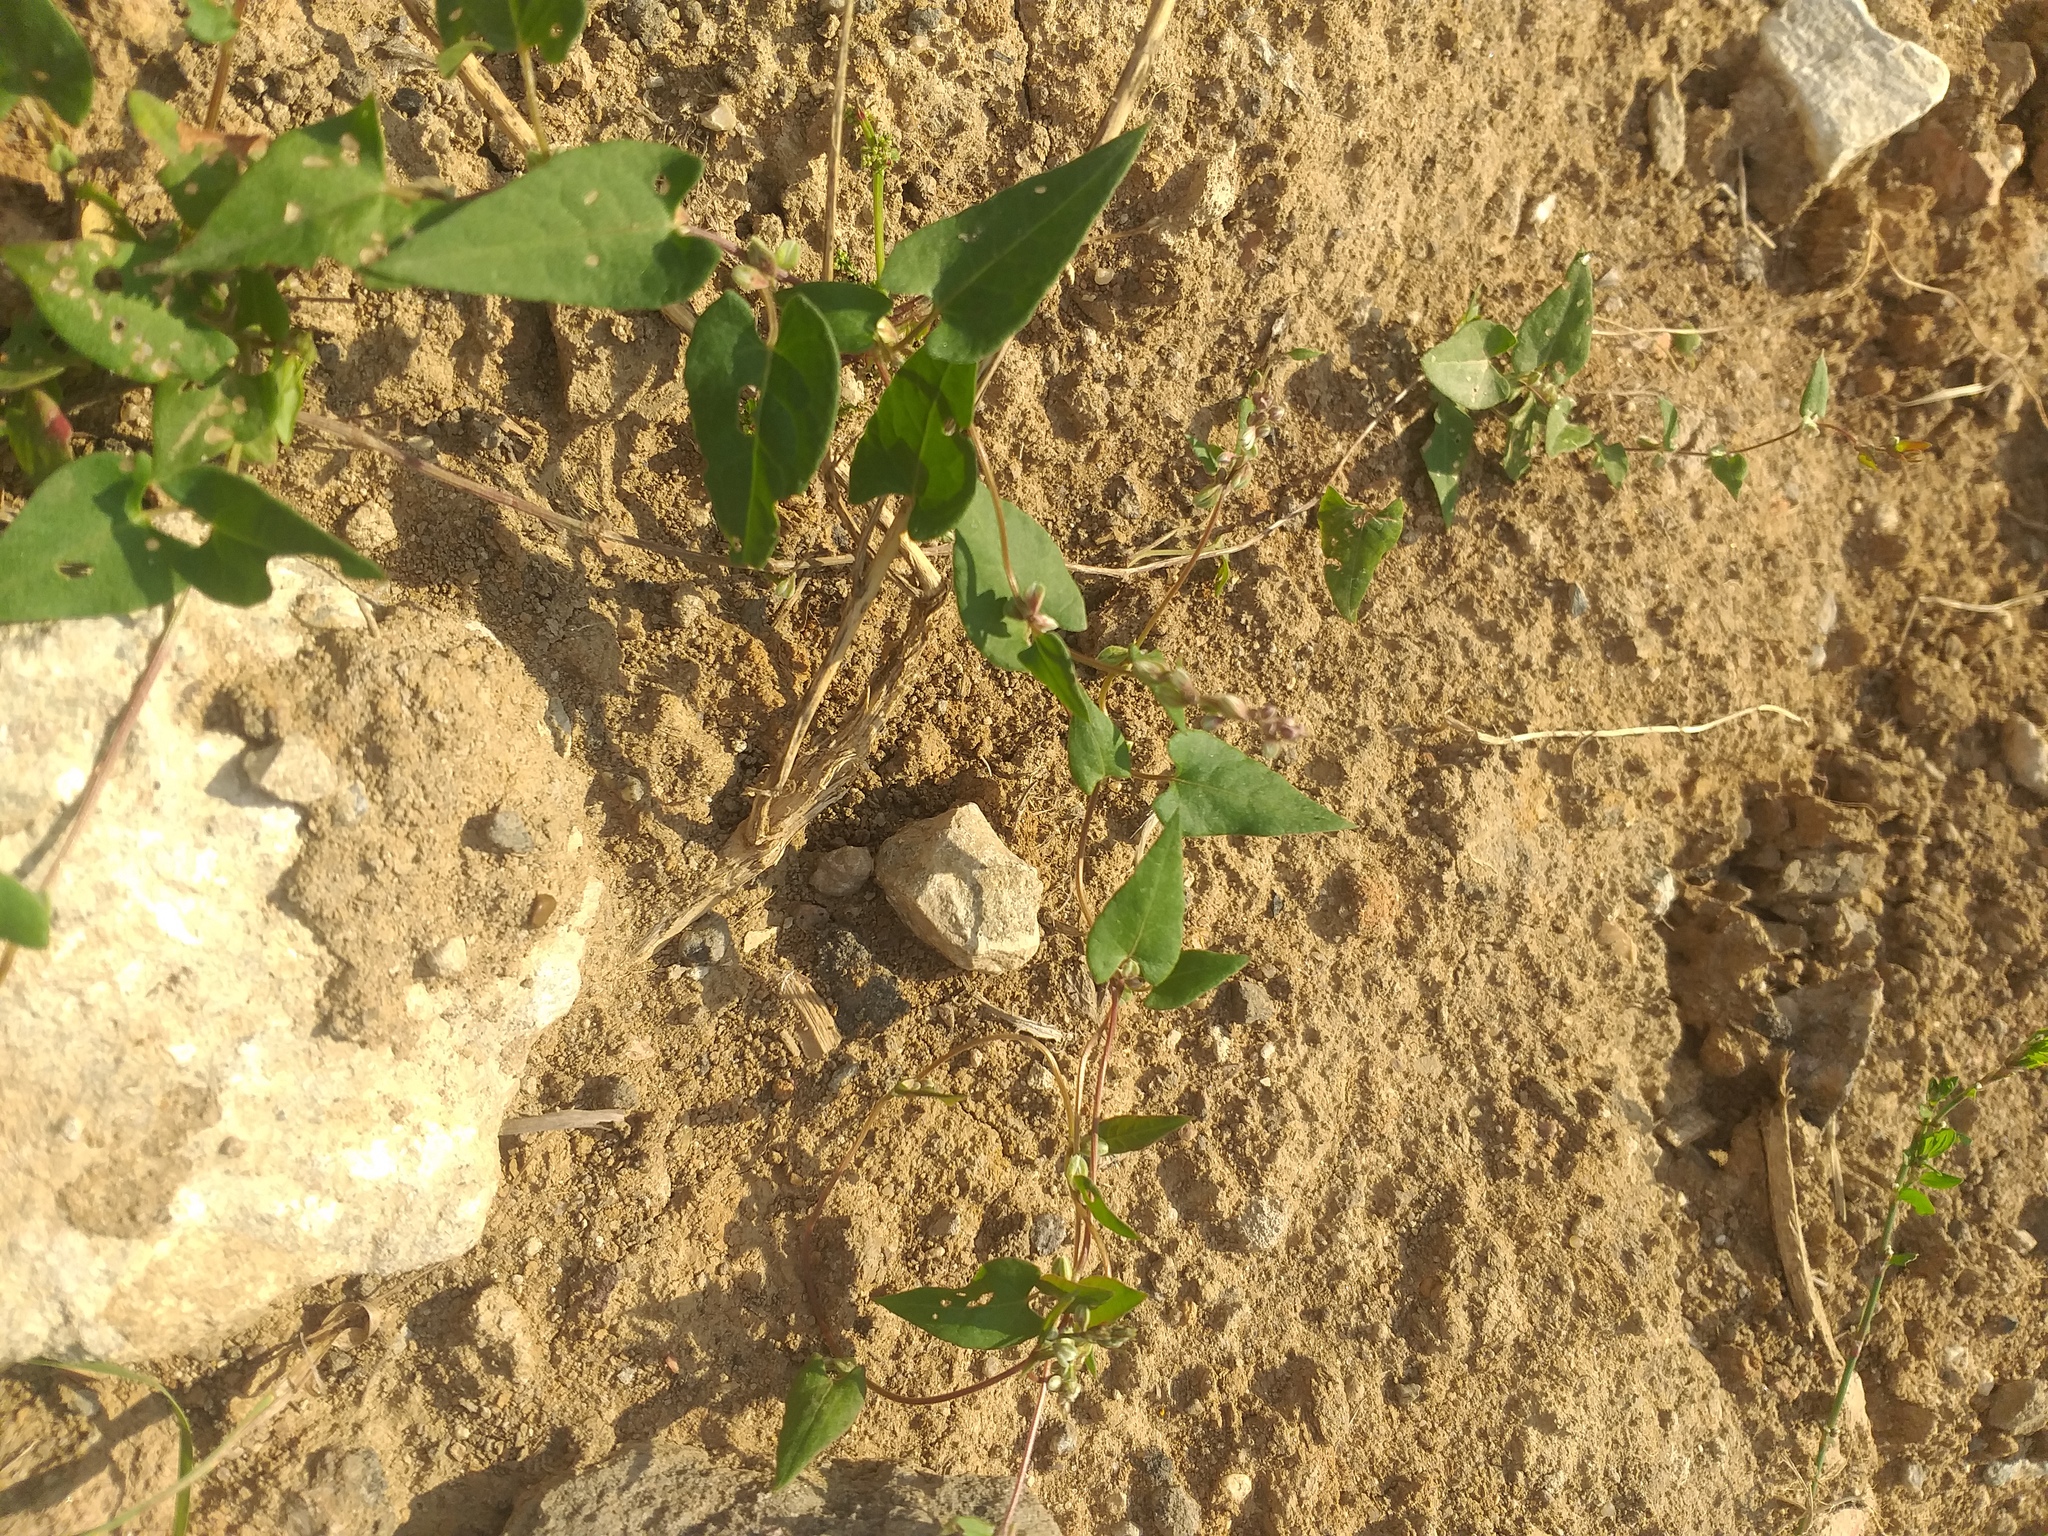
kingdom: Plantae
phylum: Tracheophyta
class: Magnoliopsida
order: Caryophyllales
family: Polygonaceae
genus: Fallopia
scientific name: Fallopia convolvulus
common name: Black bindweed
